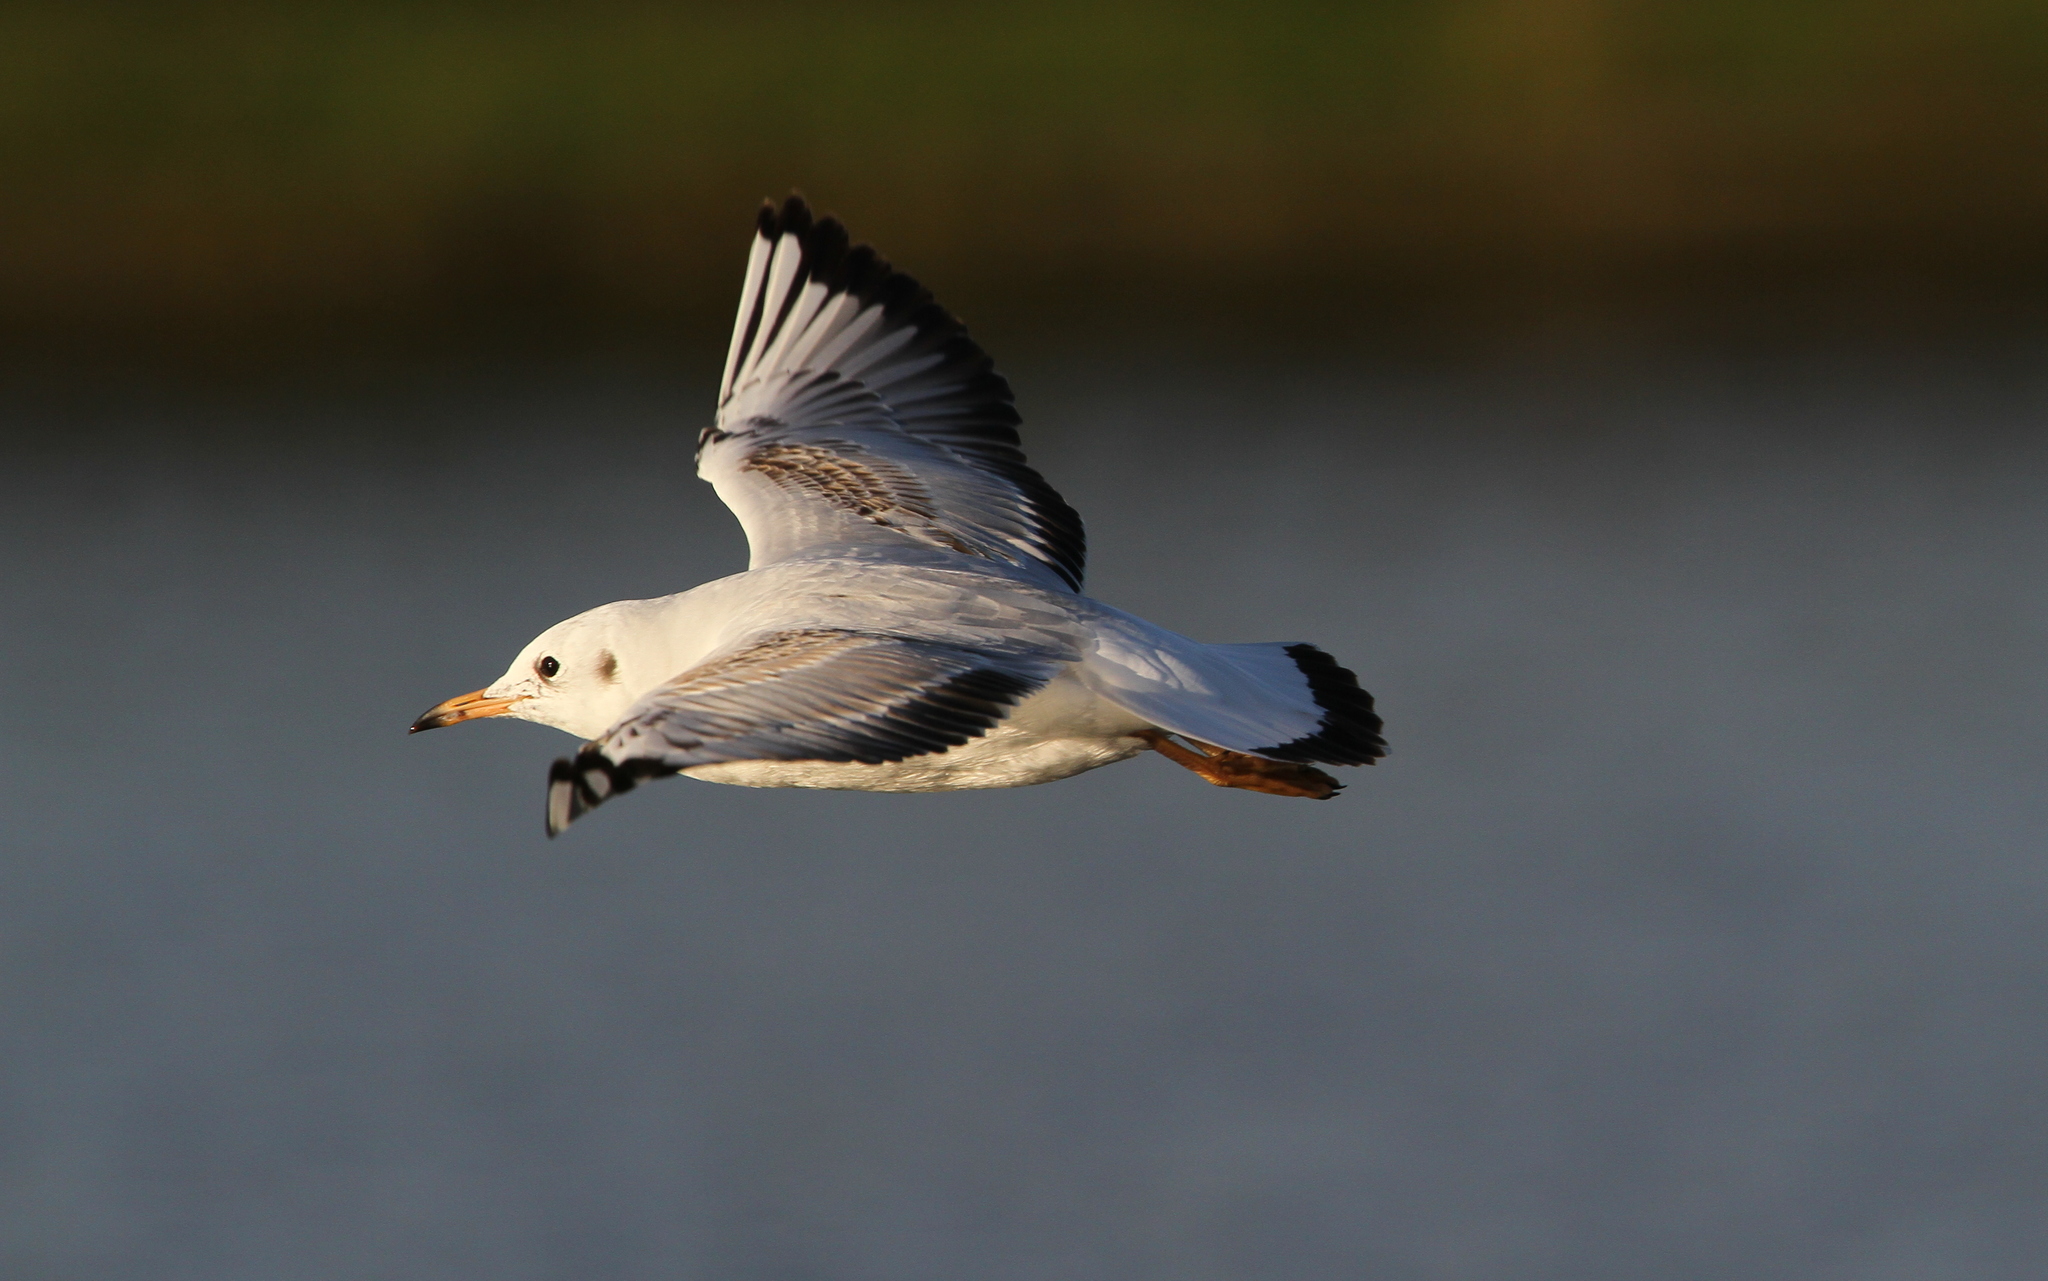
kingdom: Animalia
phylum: Chordata
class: Aves
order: Charadriiformes
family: Laridae
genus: Chroicocephalus
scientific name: Chroicocephalus ridibundus
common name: Black-headed gull
